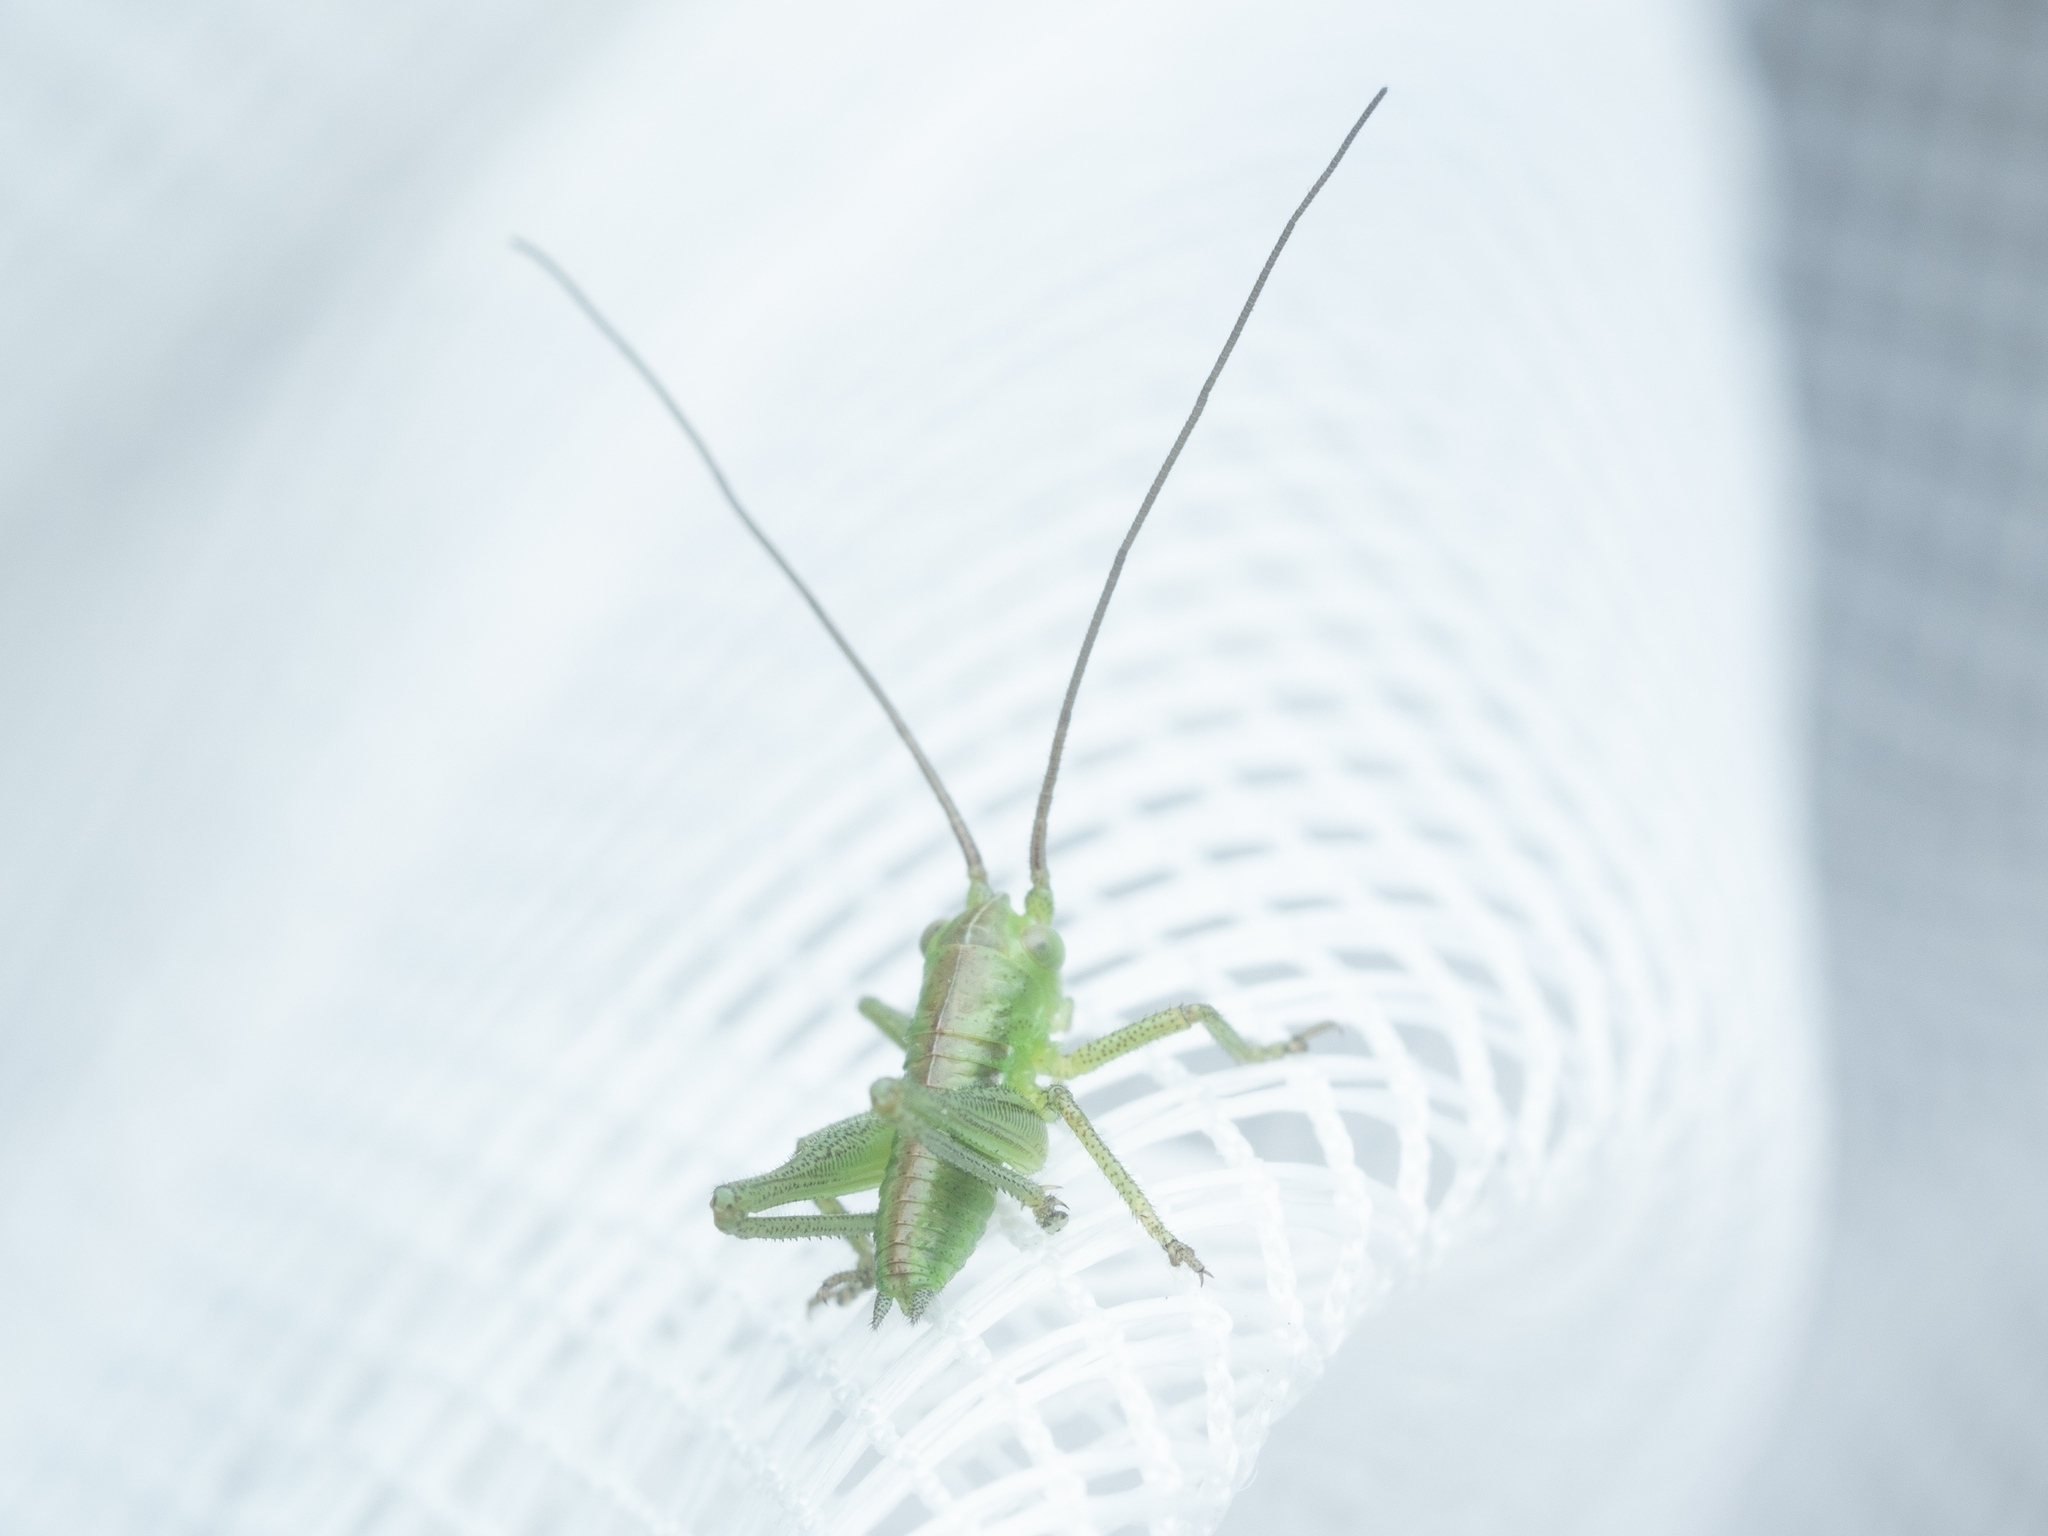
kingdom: Animalia
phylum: Arthropoda
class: Insecta
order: Orthoptera
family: Tettigoniidae
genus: Tettigonia
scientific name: Tettigonia viridissima
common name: Great green bush-cricket
